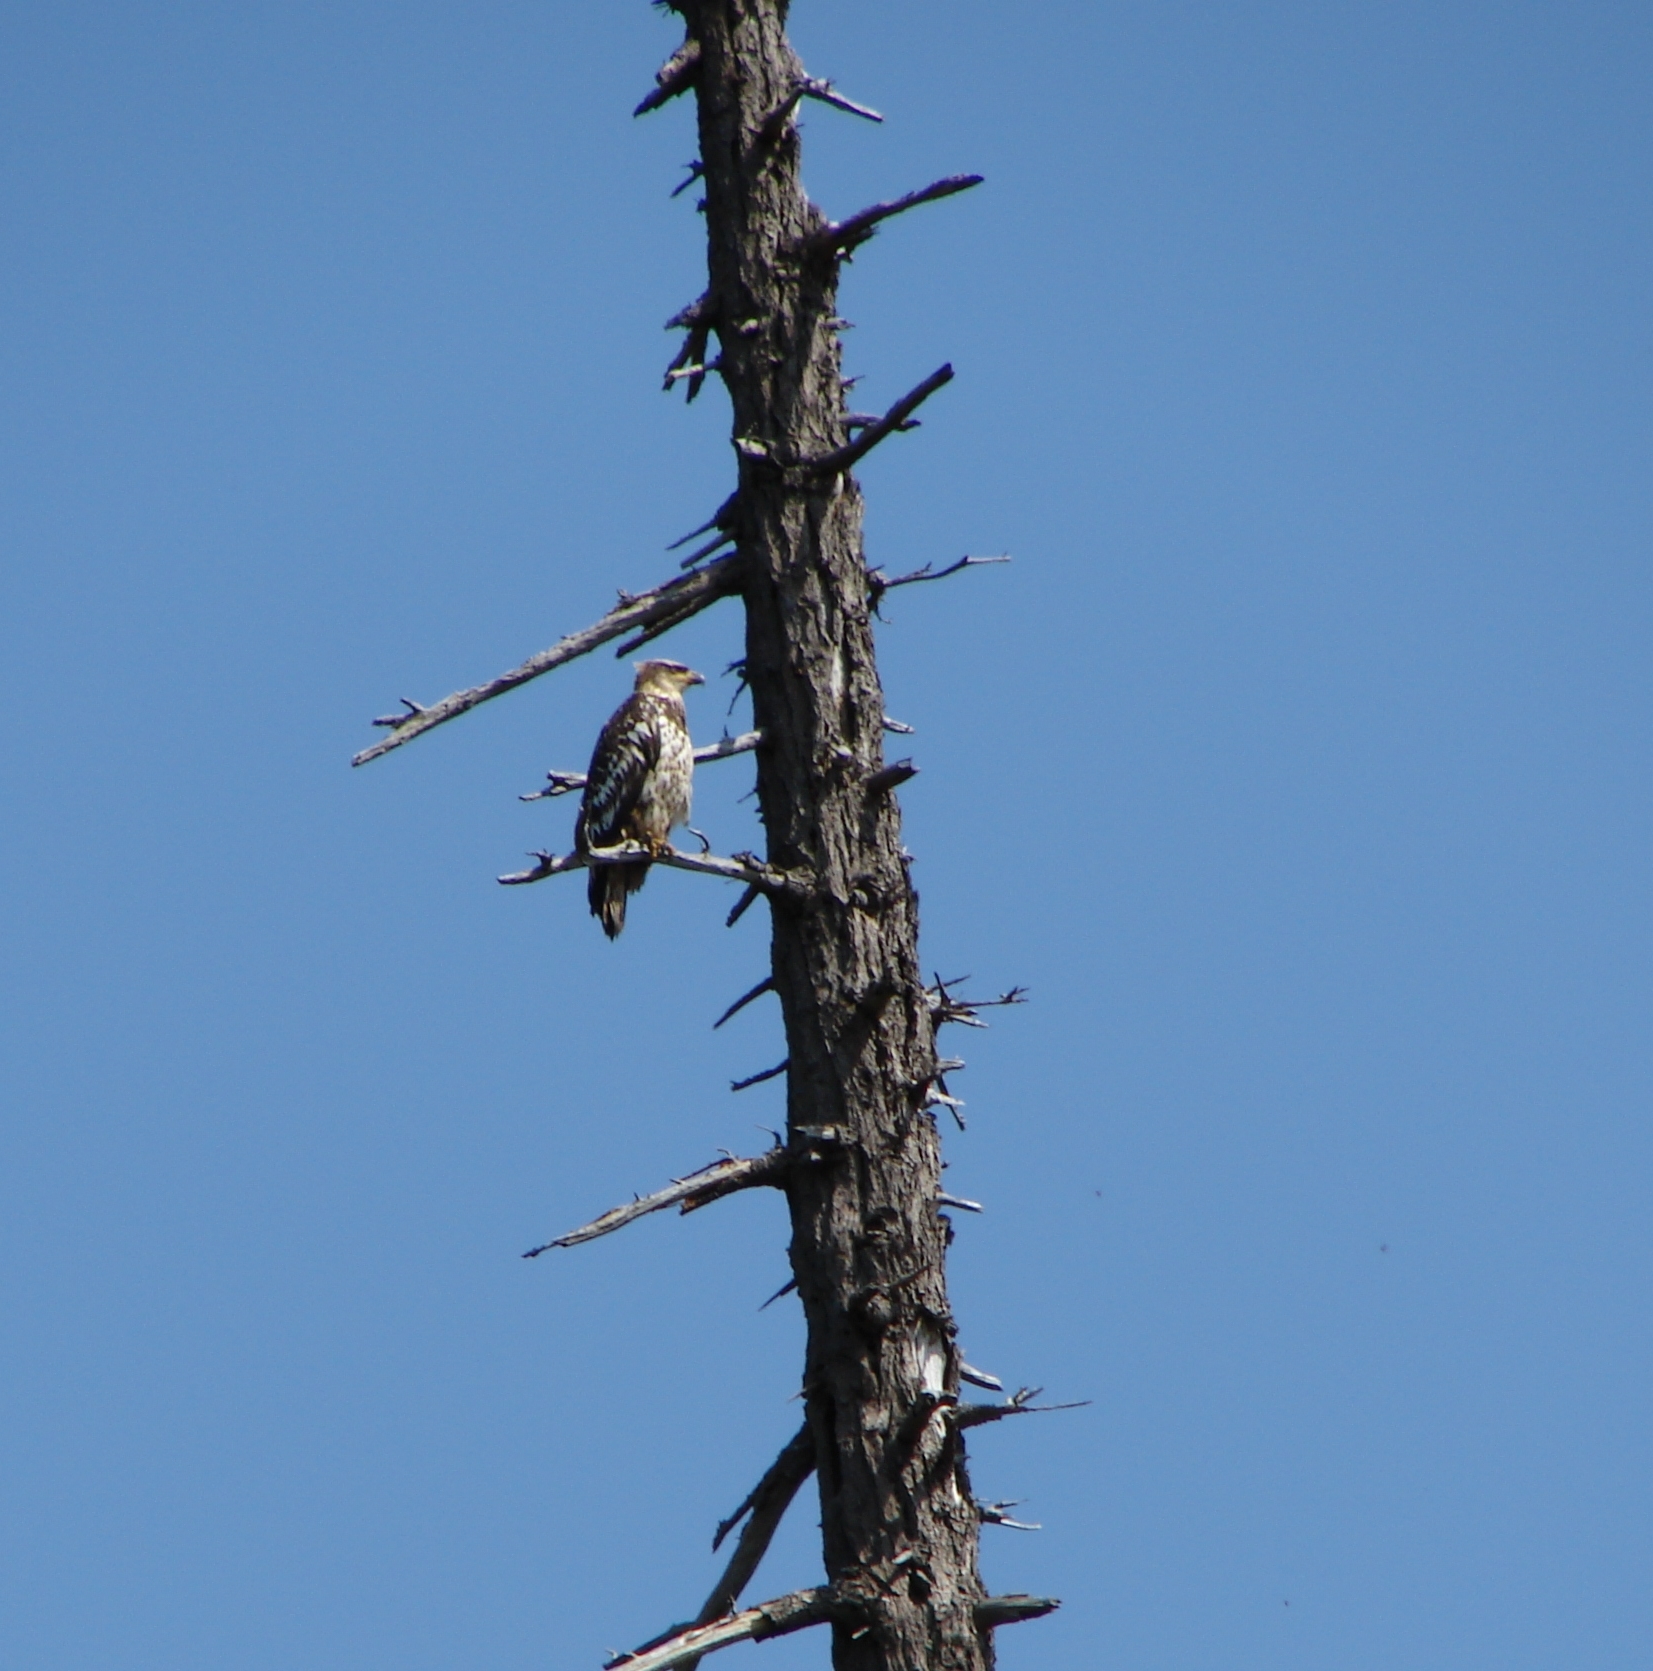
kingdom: Animalia
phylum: Chordata
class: Aves
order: Accipitriformes
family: Accipitridae
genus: Haliaeetus
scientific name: Haliaeetus leucocephalus
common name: Bald eagle
